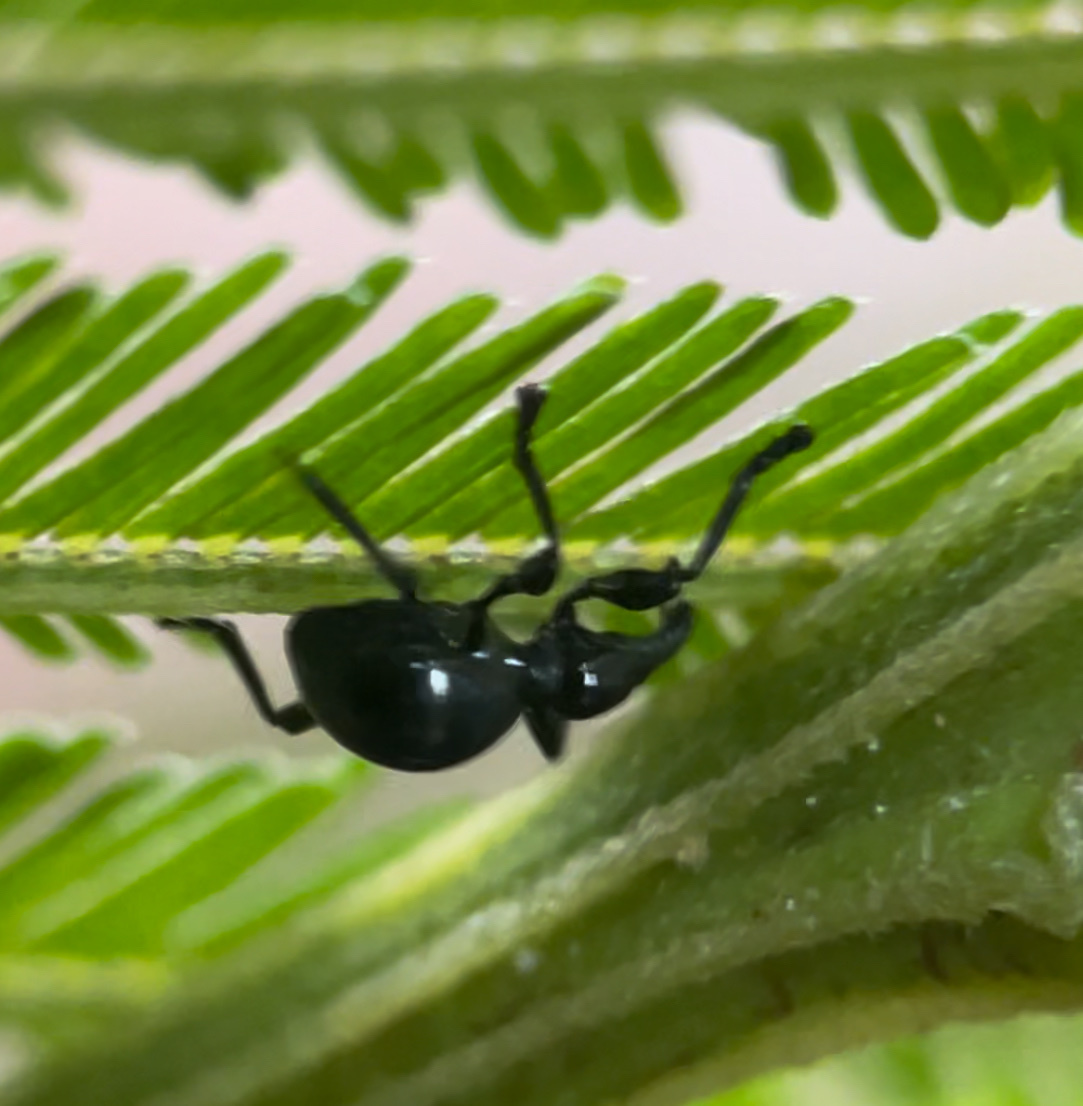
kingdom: Animalia
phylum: Arthropoda
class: Insecta
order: Coleoptera
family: Brentidae
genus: Rhynolaccus
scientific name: Rhynolaccus formicarius
